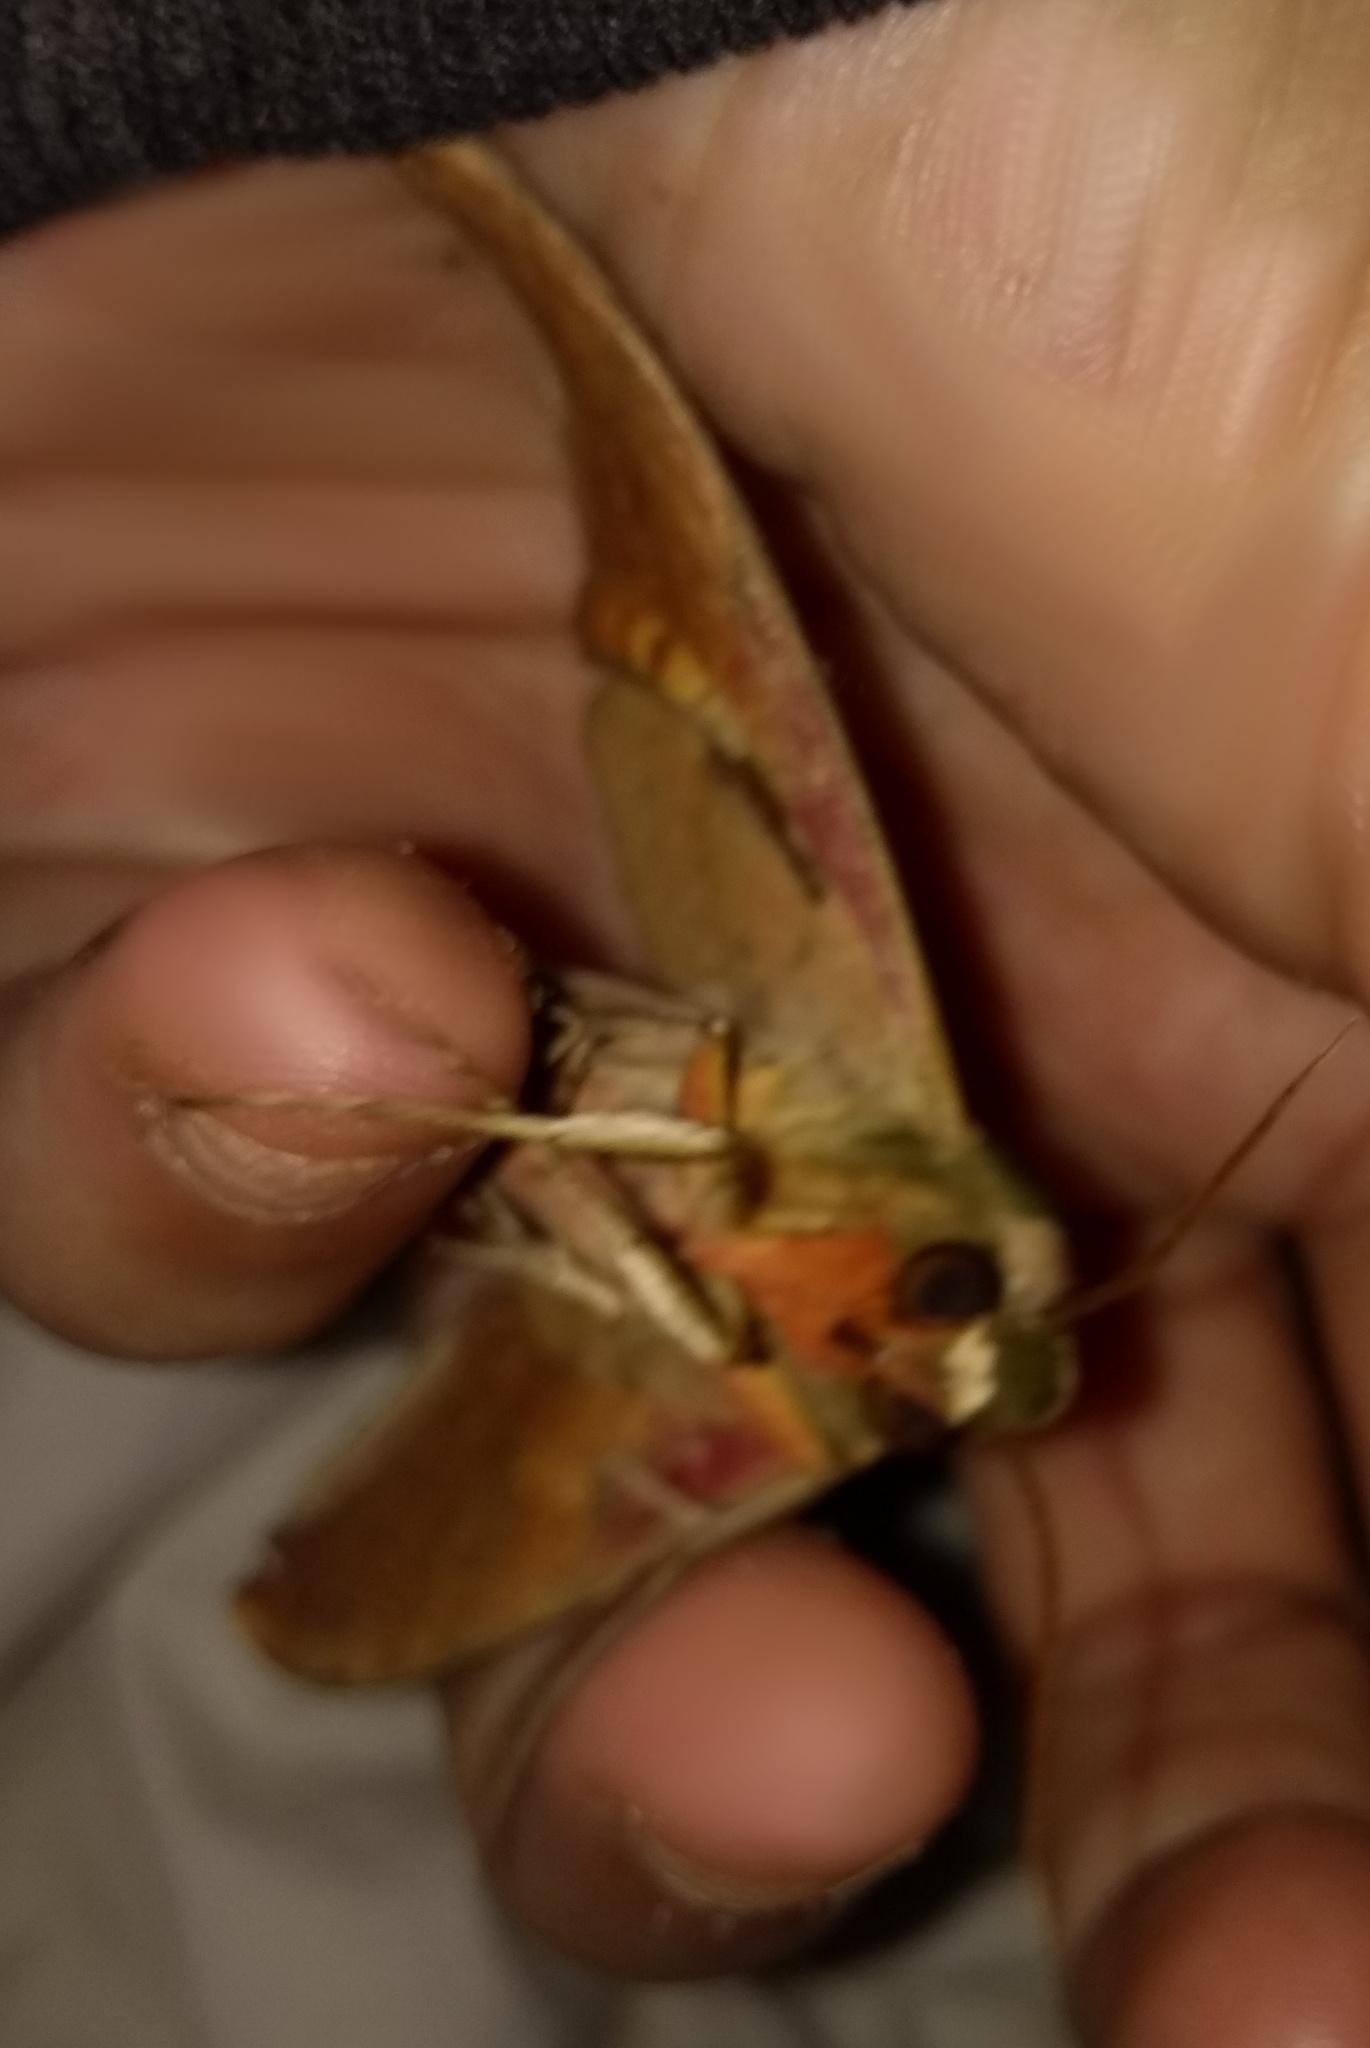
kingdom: Animalia
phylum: Arthropoda
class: Insecta
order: Lepidoptera
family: Sphingidae
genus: Adhemarius
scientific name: Adhemarius palmeri
